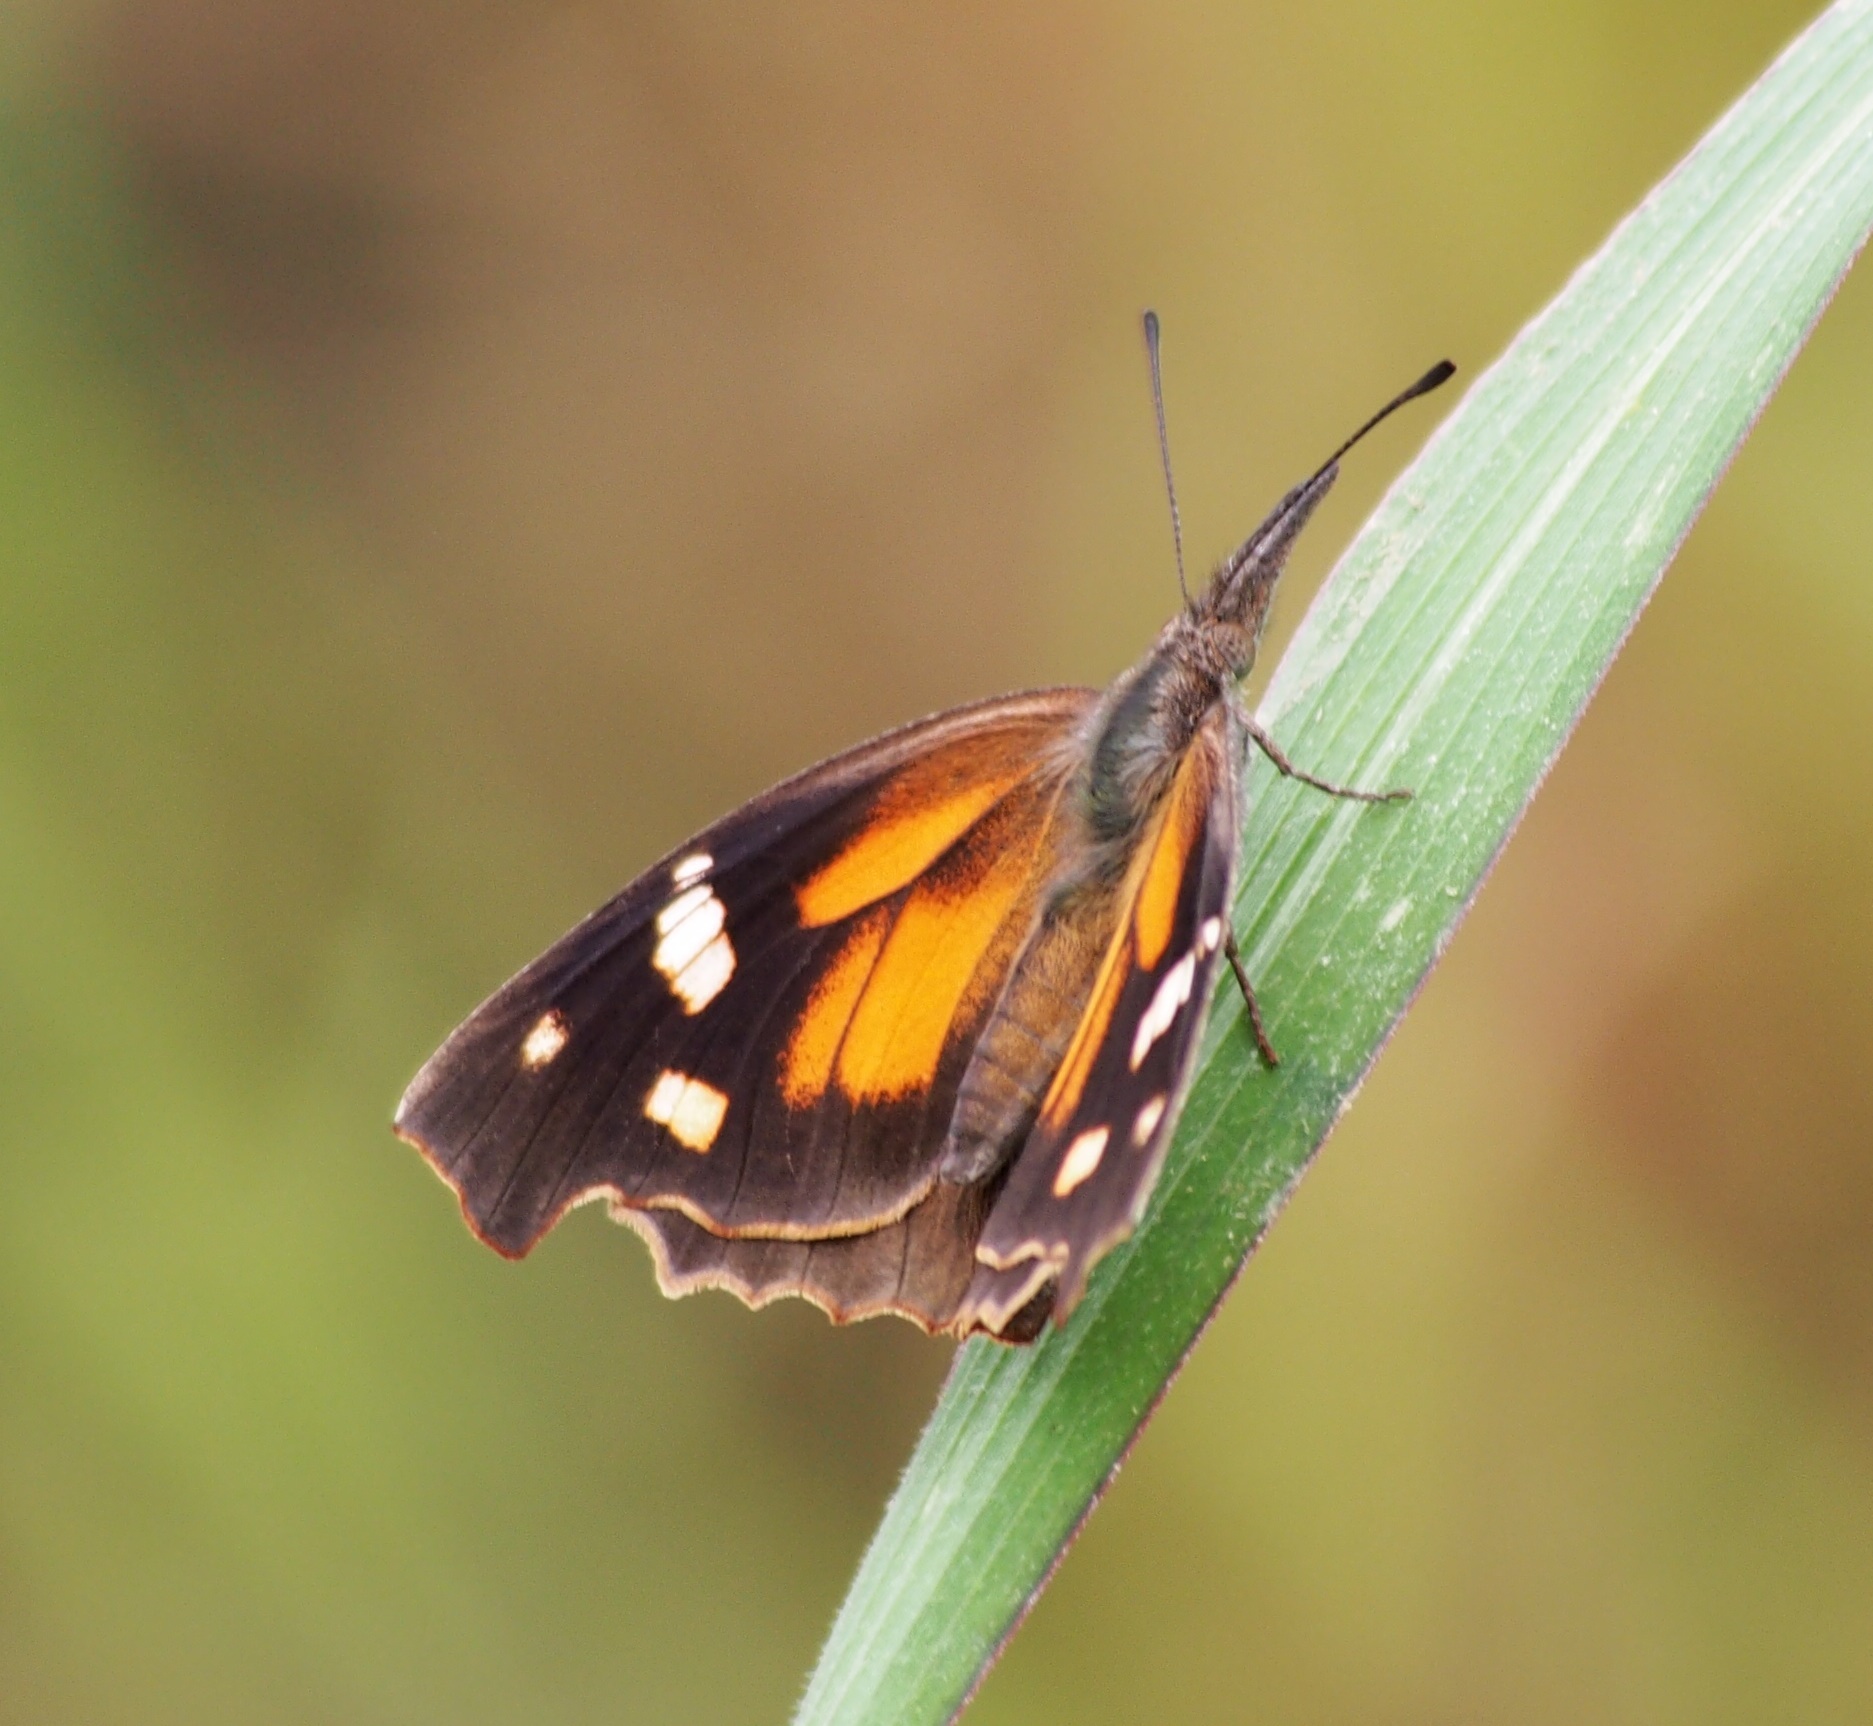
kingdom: Animalia
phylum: Arthropoda
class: Insecta
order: Lepidoptera
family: Nymphalidae
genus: Libytheana
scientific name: Libytheana carinenta
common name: American snout
